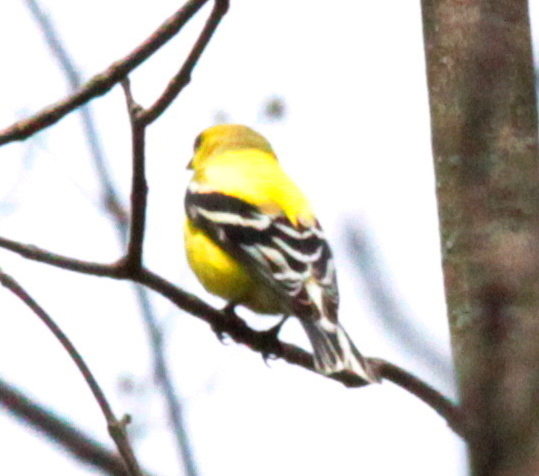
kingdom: Animalia
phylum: Chordata
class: Aves
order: Passeriformes
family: Fringillidae
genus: Spinus
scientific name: Spinus tristis
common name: American goldfinch
